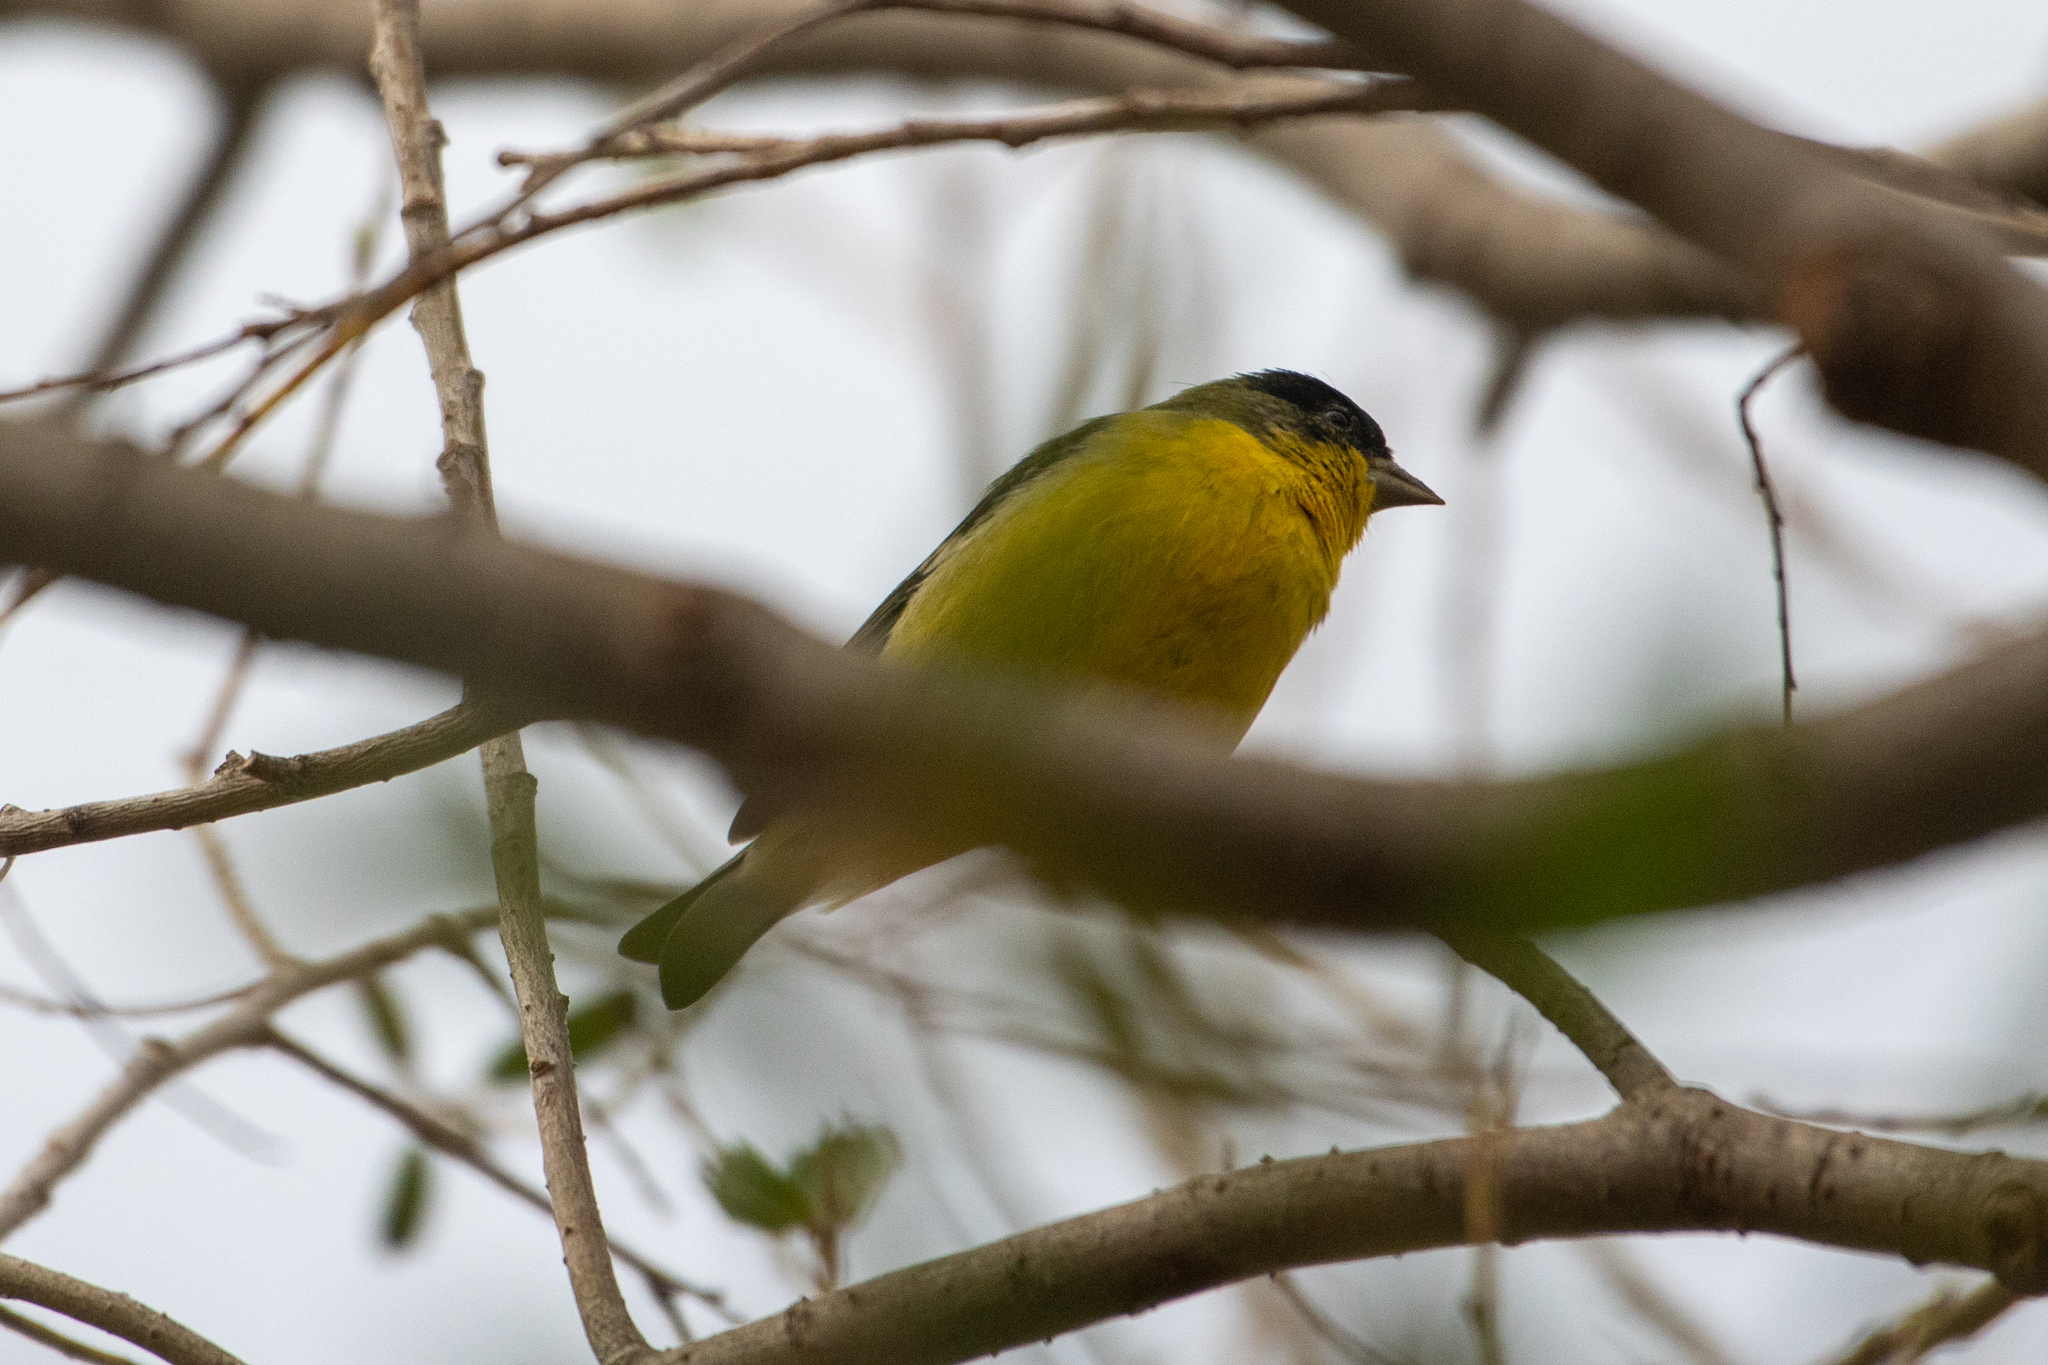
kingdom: Animalia
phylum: Chordata
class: Aves
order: Passeriformes
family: Fringillidae
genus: Spinus
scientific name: Spinus psaltria
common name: Lesser goldfinch
